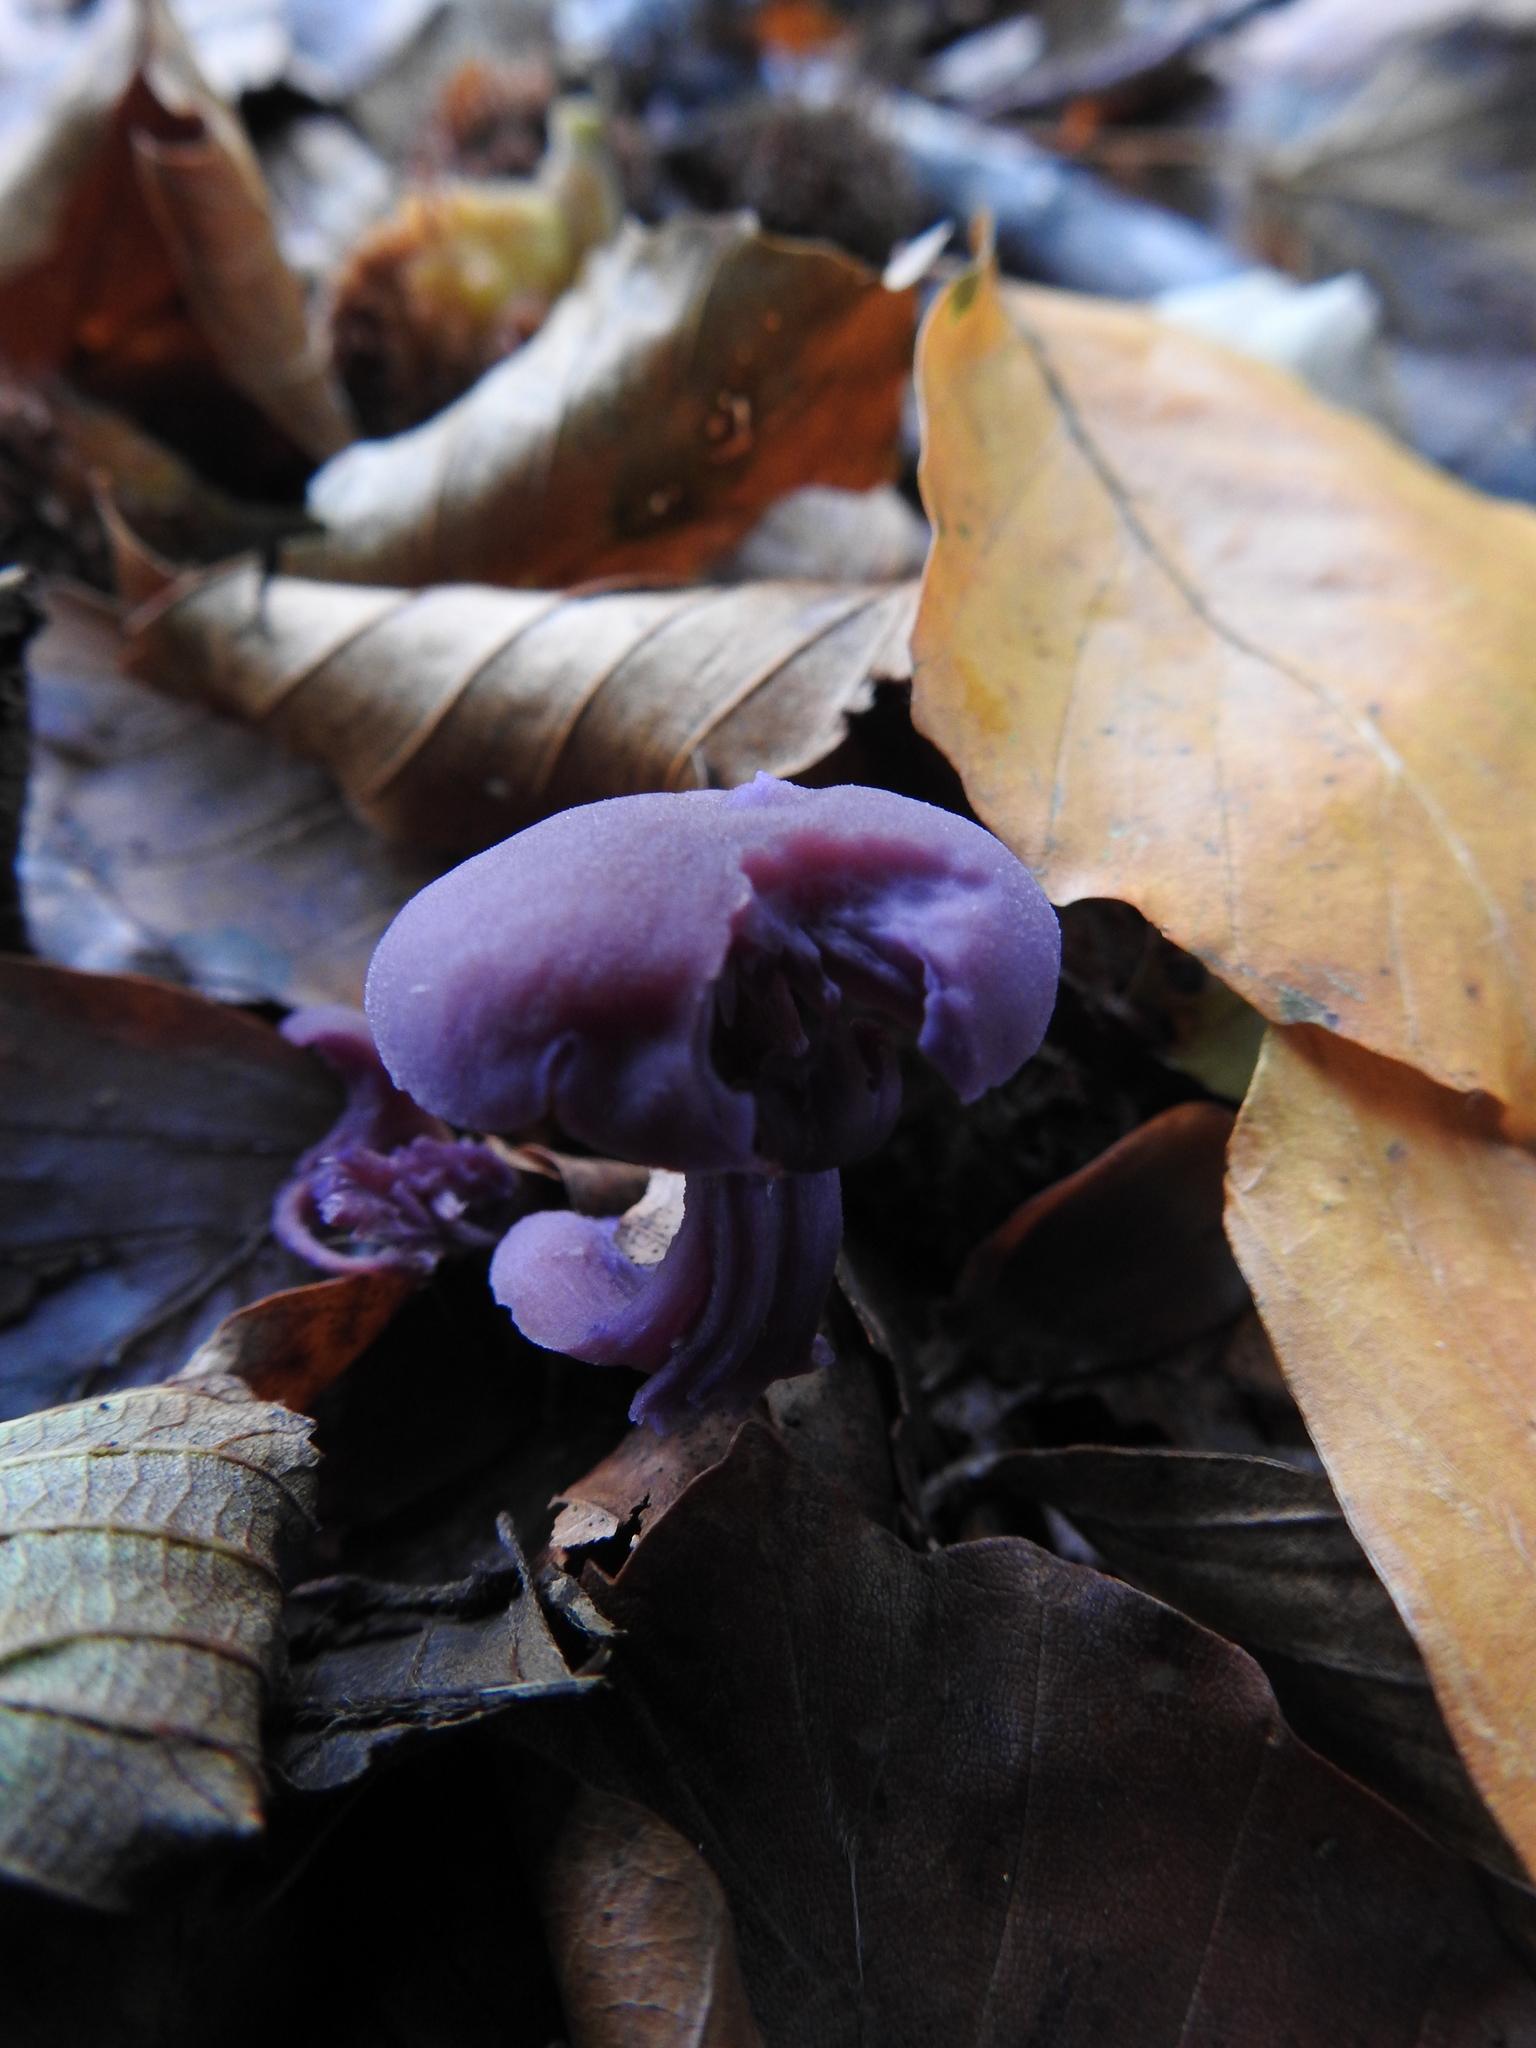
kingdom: Fungi
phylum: Basidiomycota
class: Agaricomycetes
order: Agaricales
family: Hydnangiaceae
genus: Laccaria
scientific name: Laccaria amethystina
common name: Amethyst deceiver
